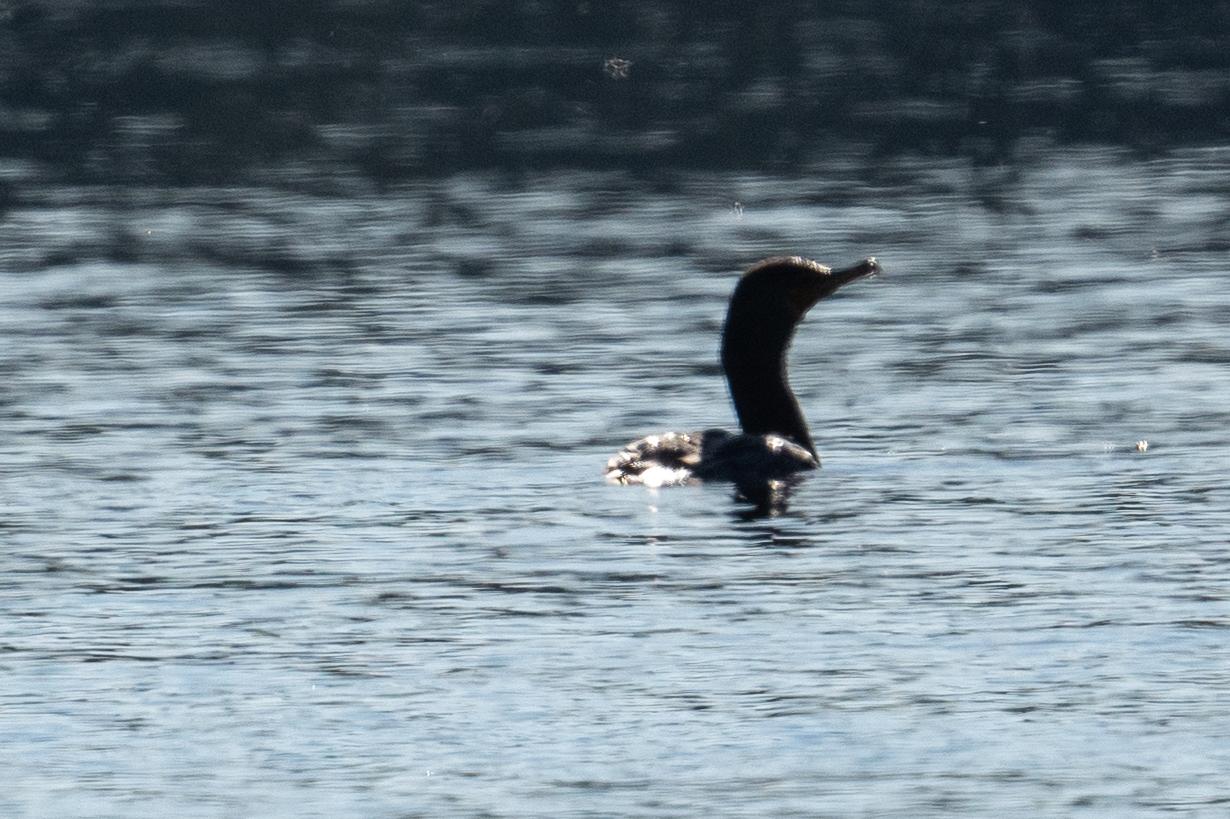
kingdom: Animalia
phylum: Chordata
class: Aves
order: Suliformes
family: Phalacrocoracidae
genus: Phalacrocorax
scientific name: Phalacrocorax auritus
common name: Double-crested cormorant
